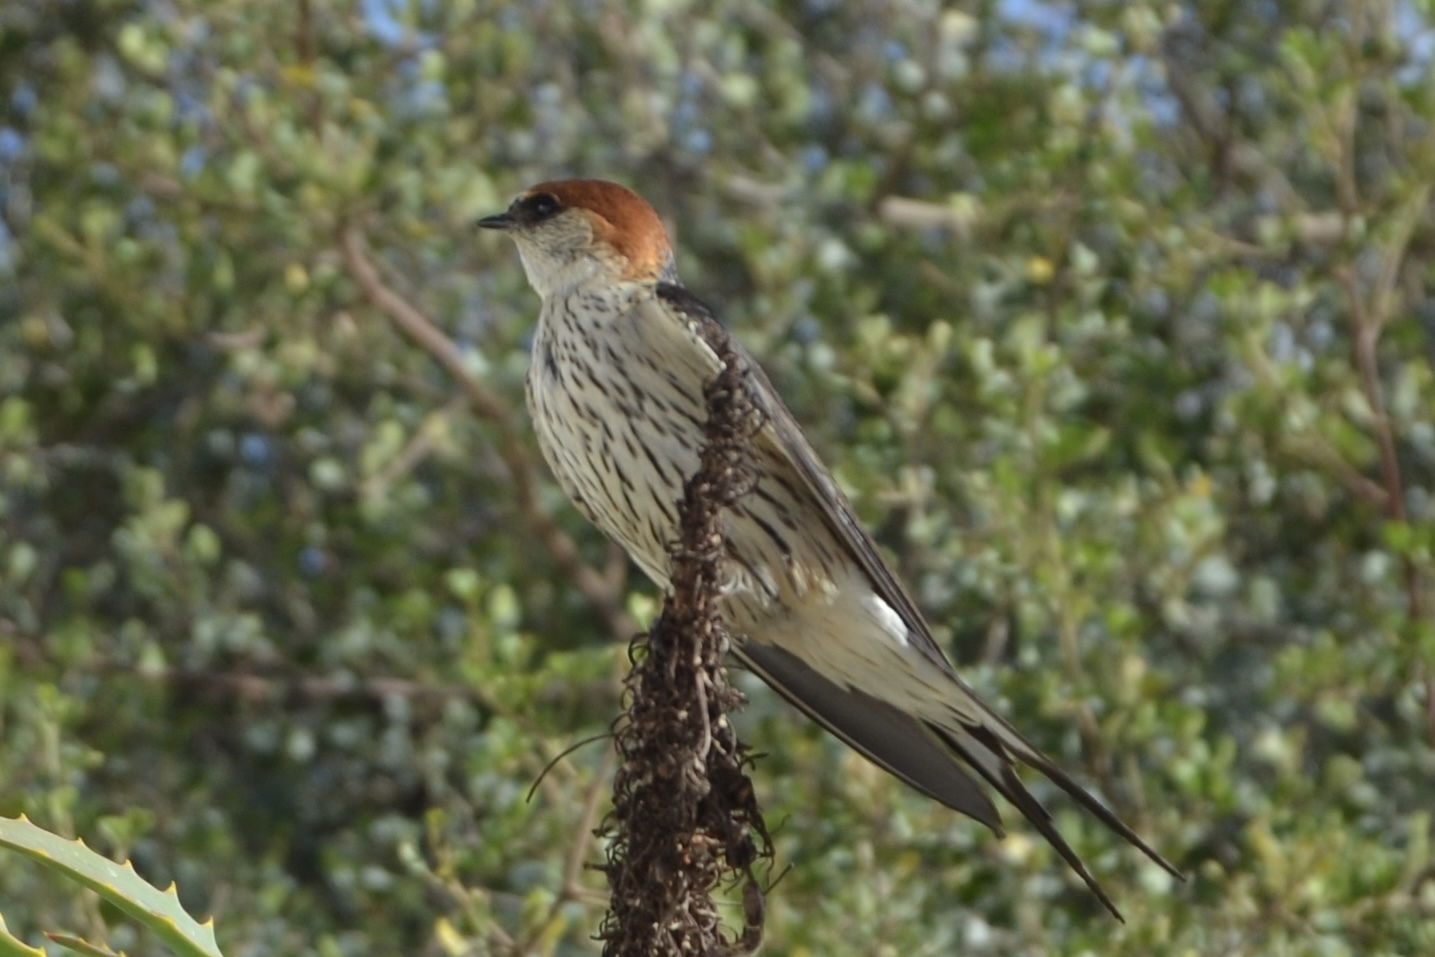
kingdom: Animalia
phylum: Chordata
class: Aves
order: Passeriformes
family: Hirundinidae
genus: Cecropis
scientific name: Cecropis cucullata
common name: Greater striped-swallow
